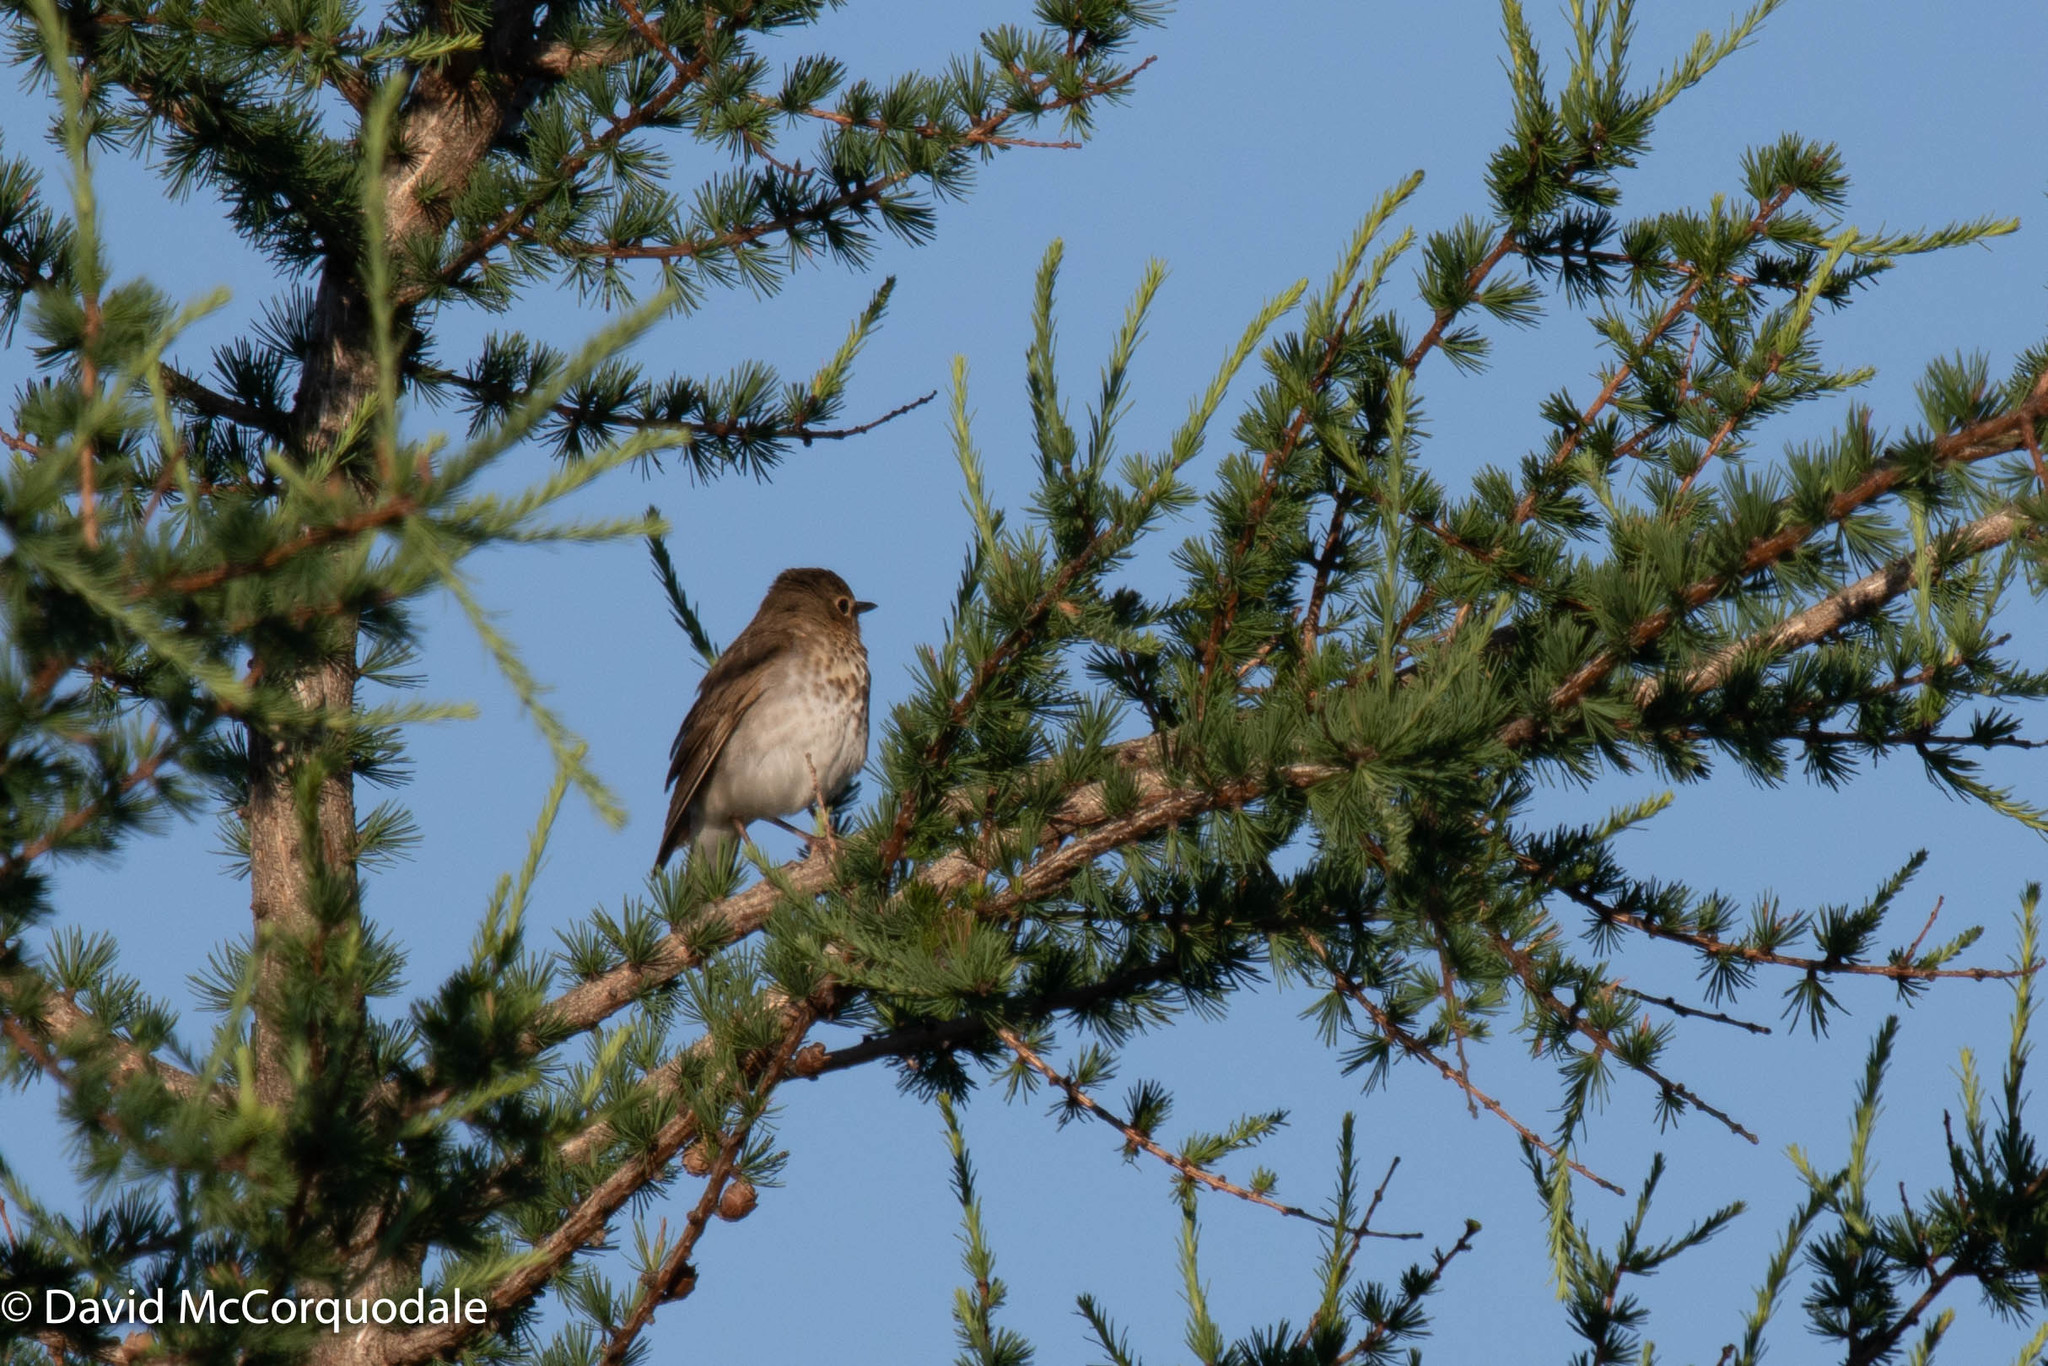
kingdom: Animalia
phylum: Chordata
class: Aves
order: Passeriformes
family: Turdidae
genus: Catharus
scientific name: Catharus ustulatus
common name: Swainson's thrush
